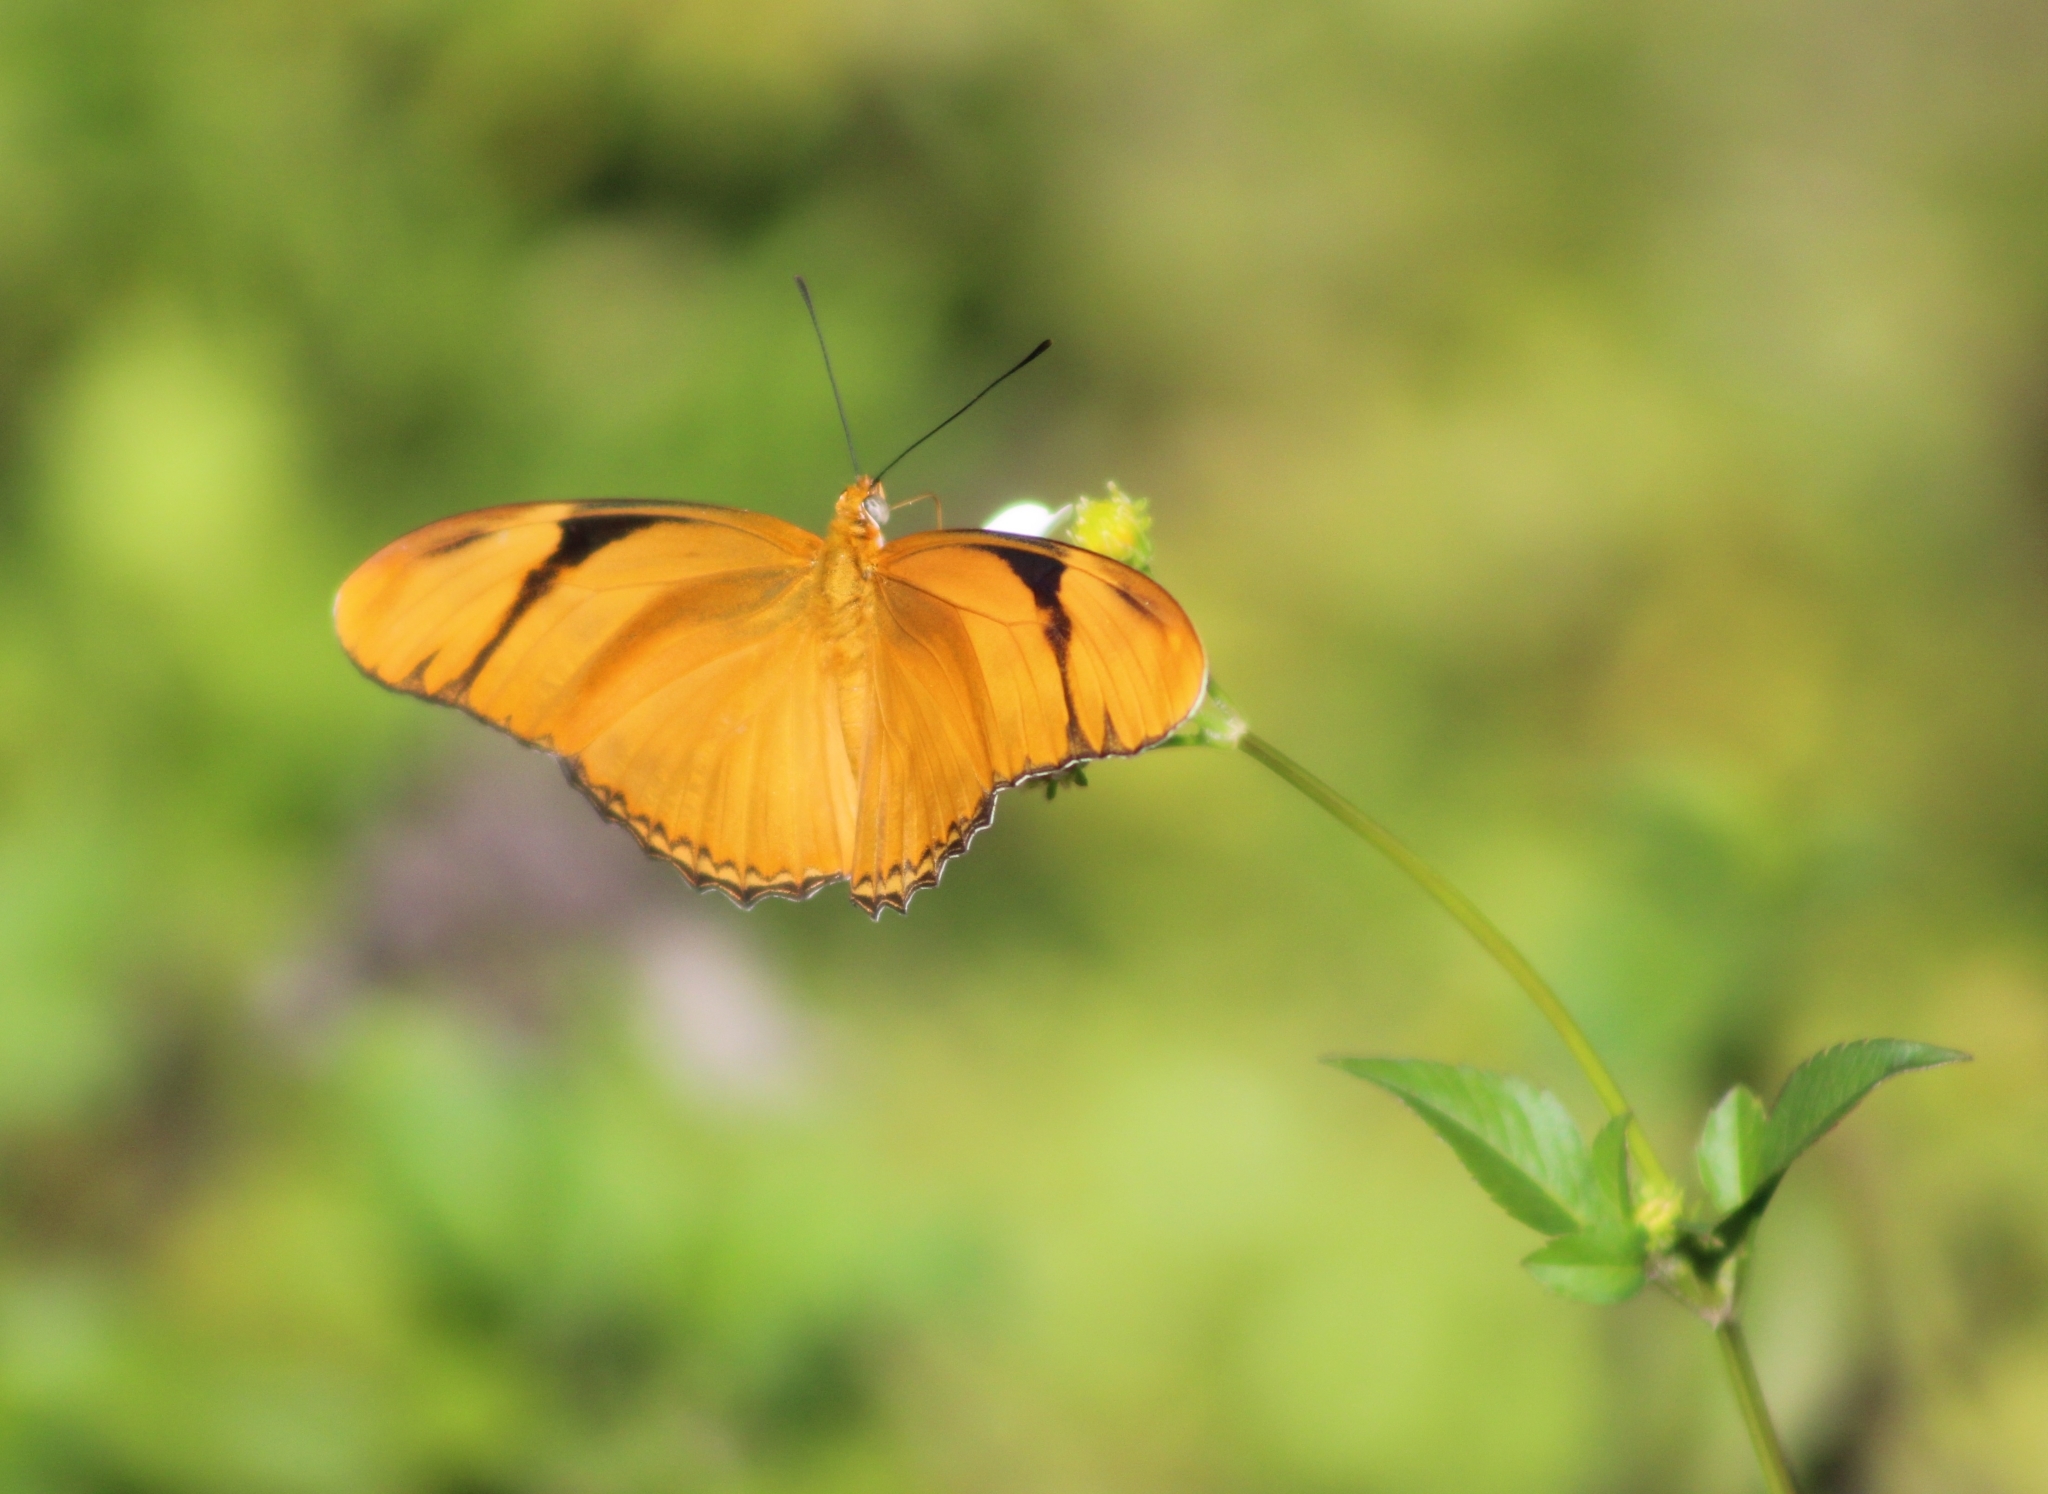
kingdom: Animalia
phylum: Arthropoda
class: Insecta
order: Lepidoptera
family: Nymphalidae
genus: Dryas
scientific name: Dryas iulia
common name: Flambeau
